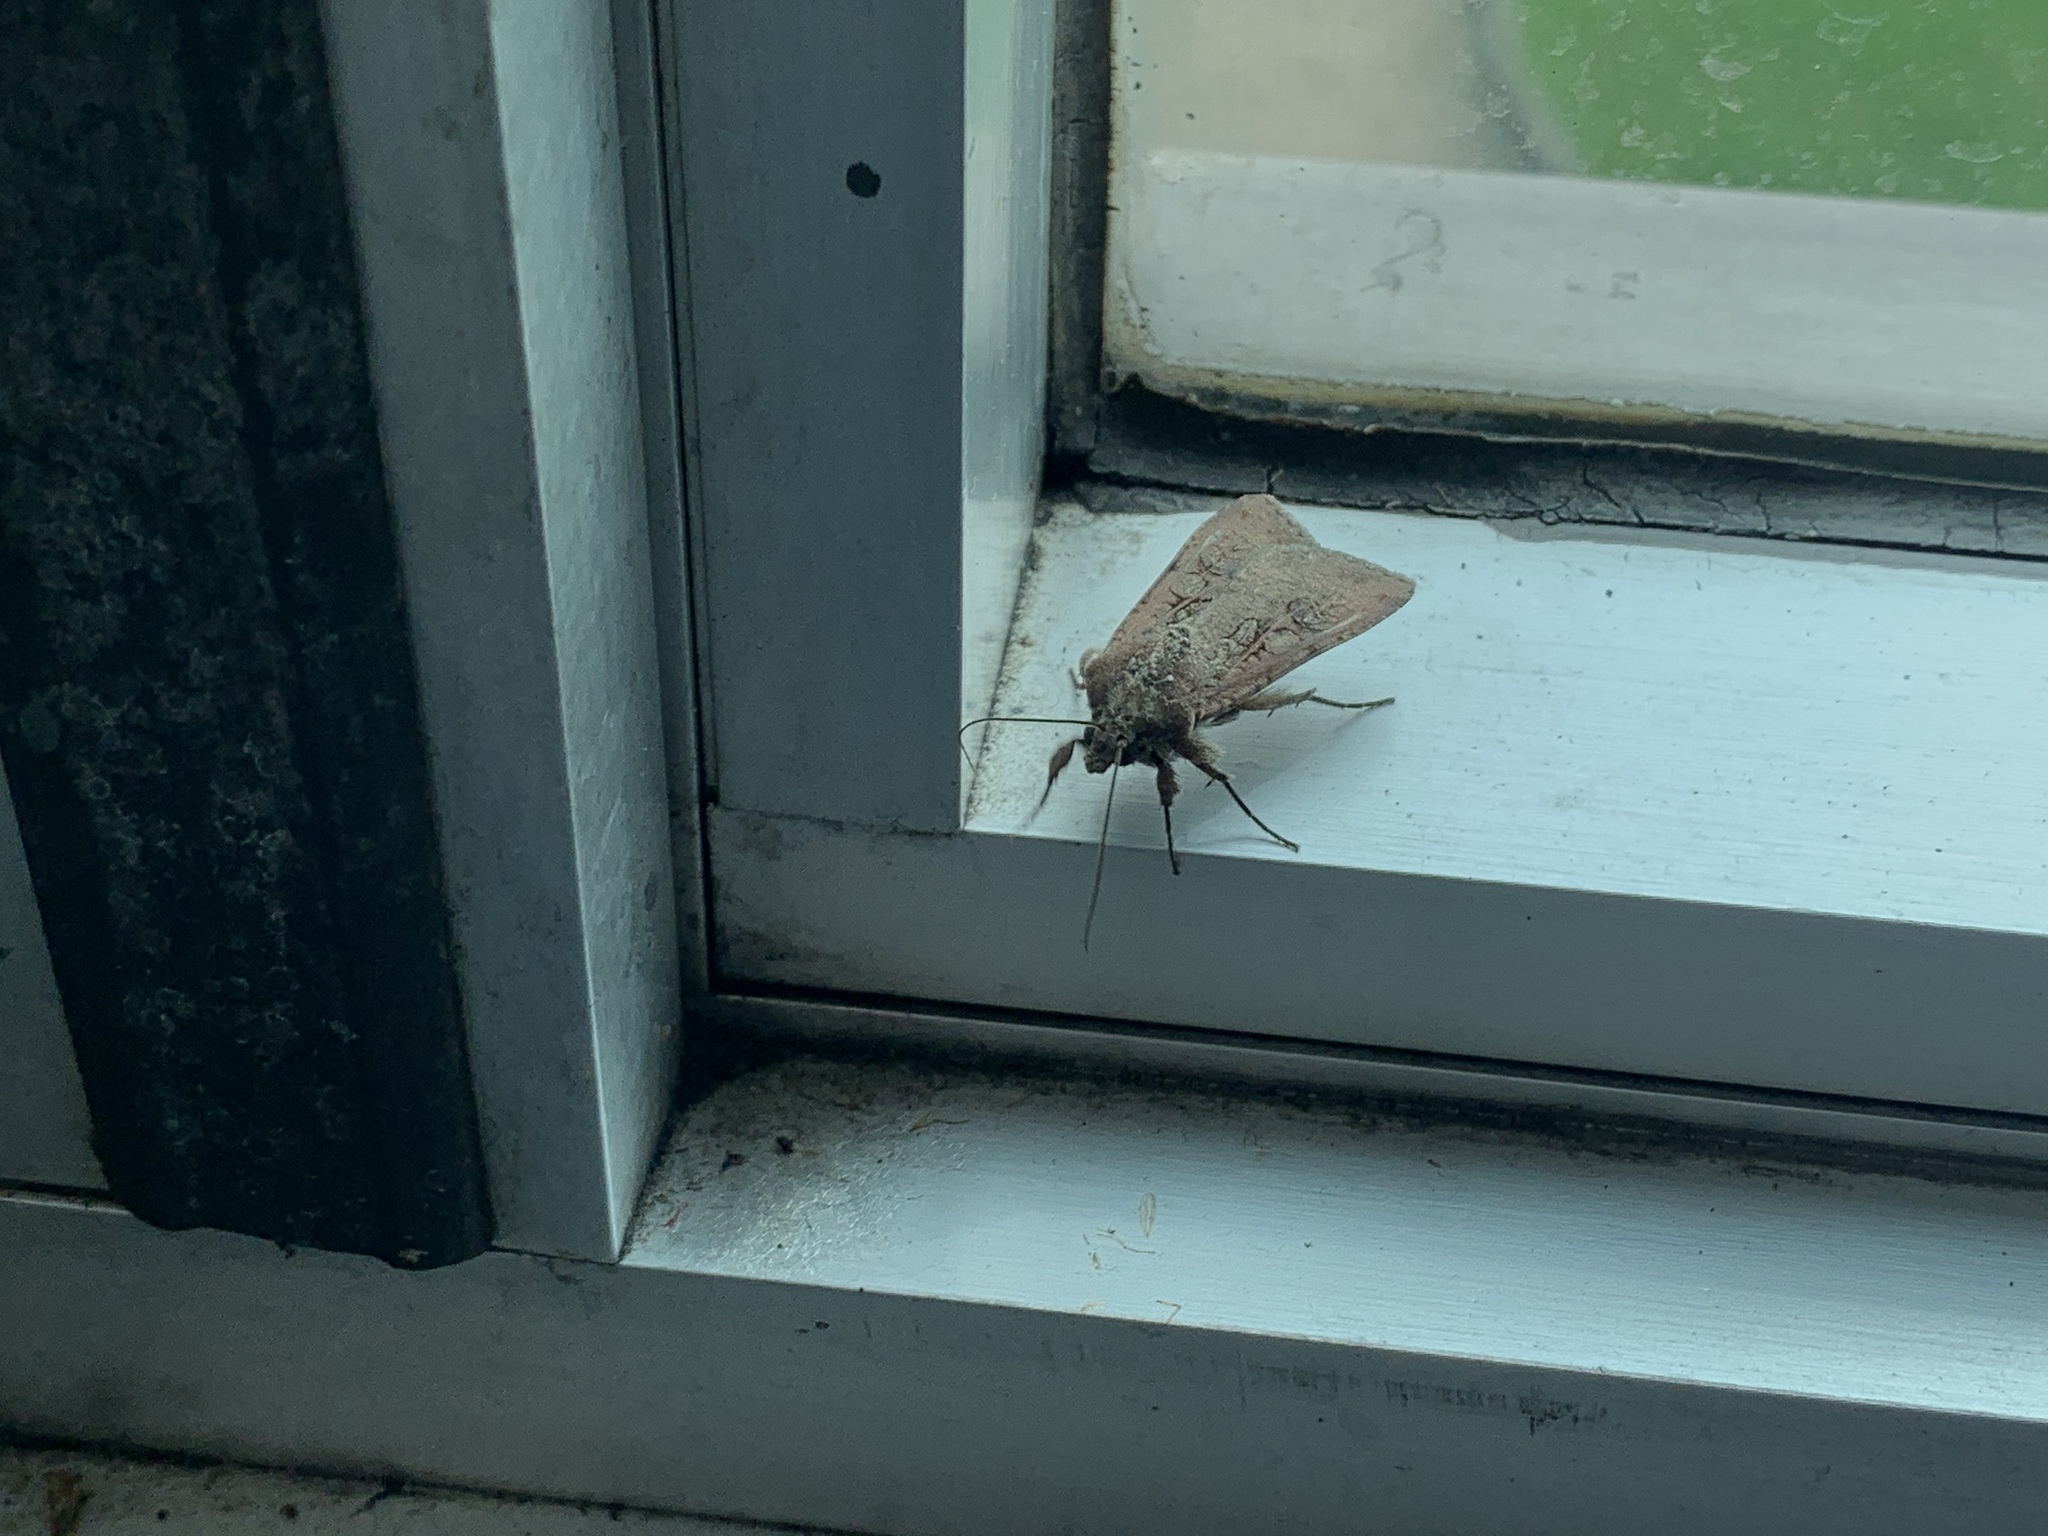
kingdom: Animalia
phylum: Arthropoda
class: Insecta
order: Lepidoptera
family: Noctuidae
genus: Peridroma
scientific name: Peridroma saucia
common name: Pearly underwing
